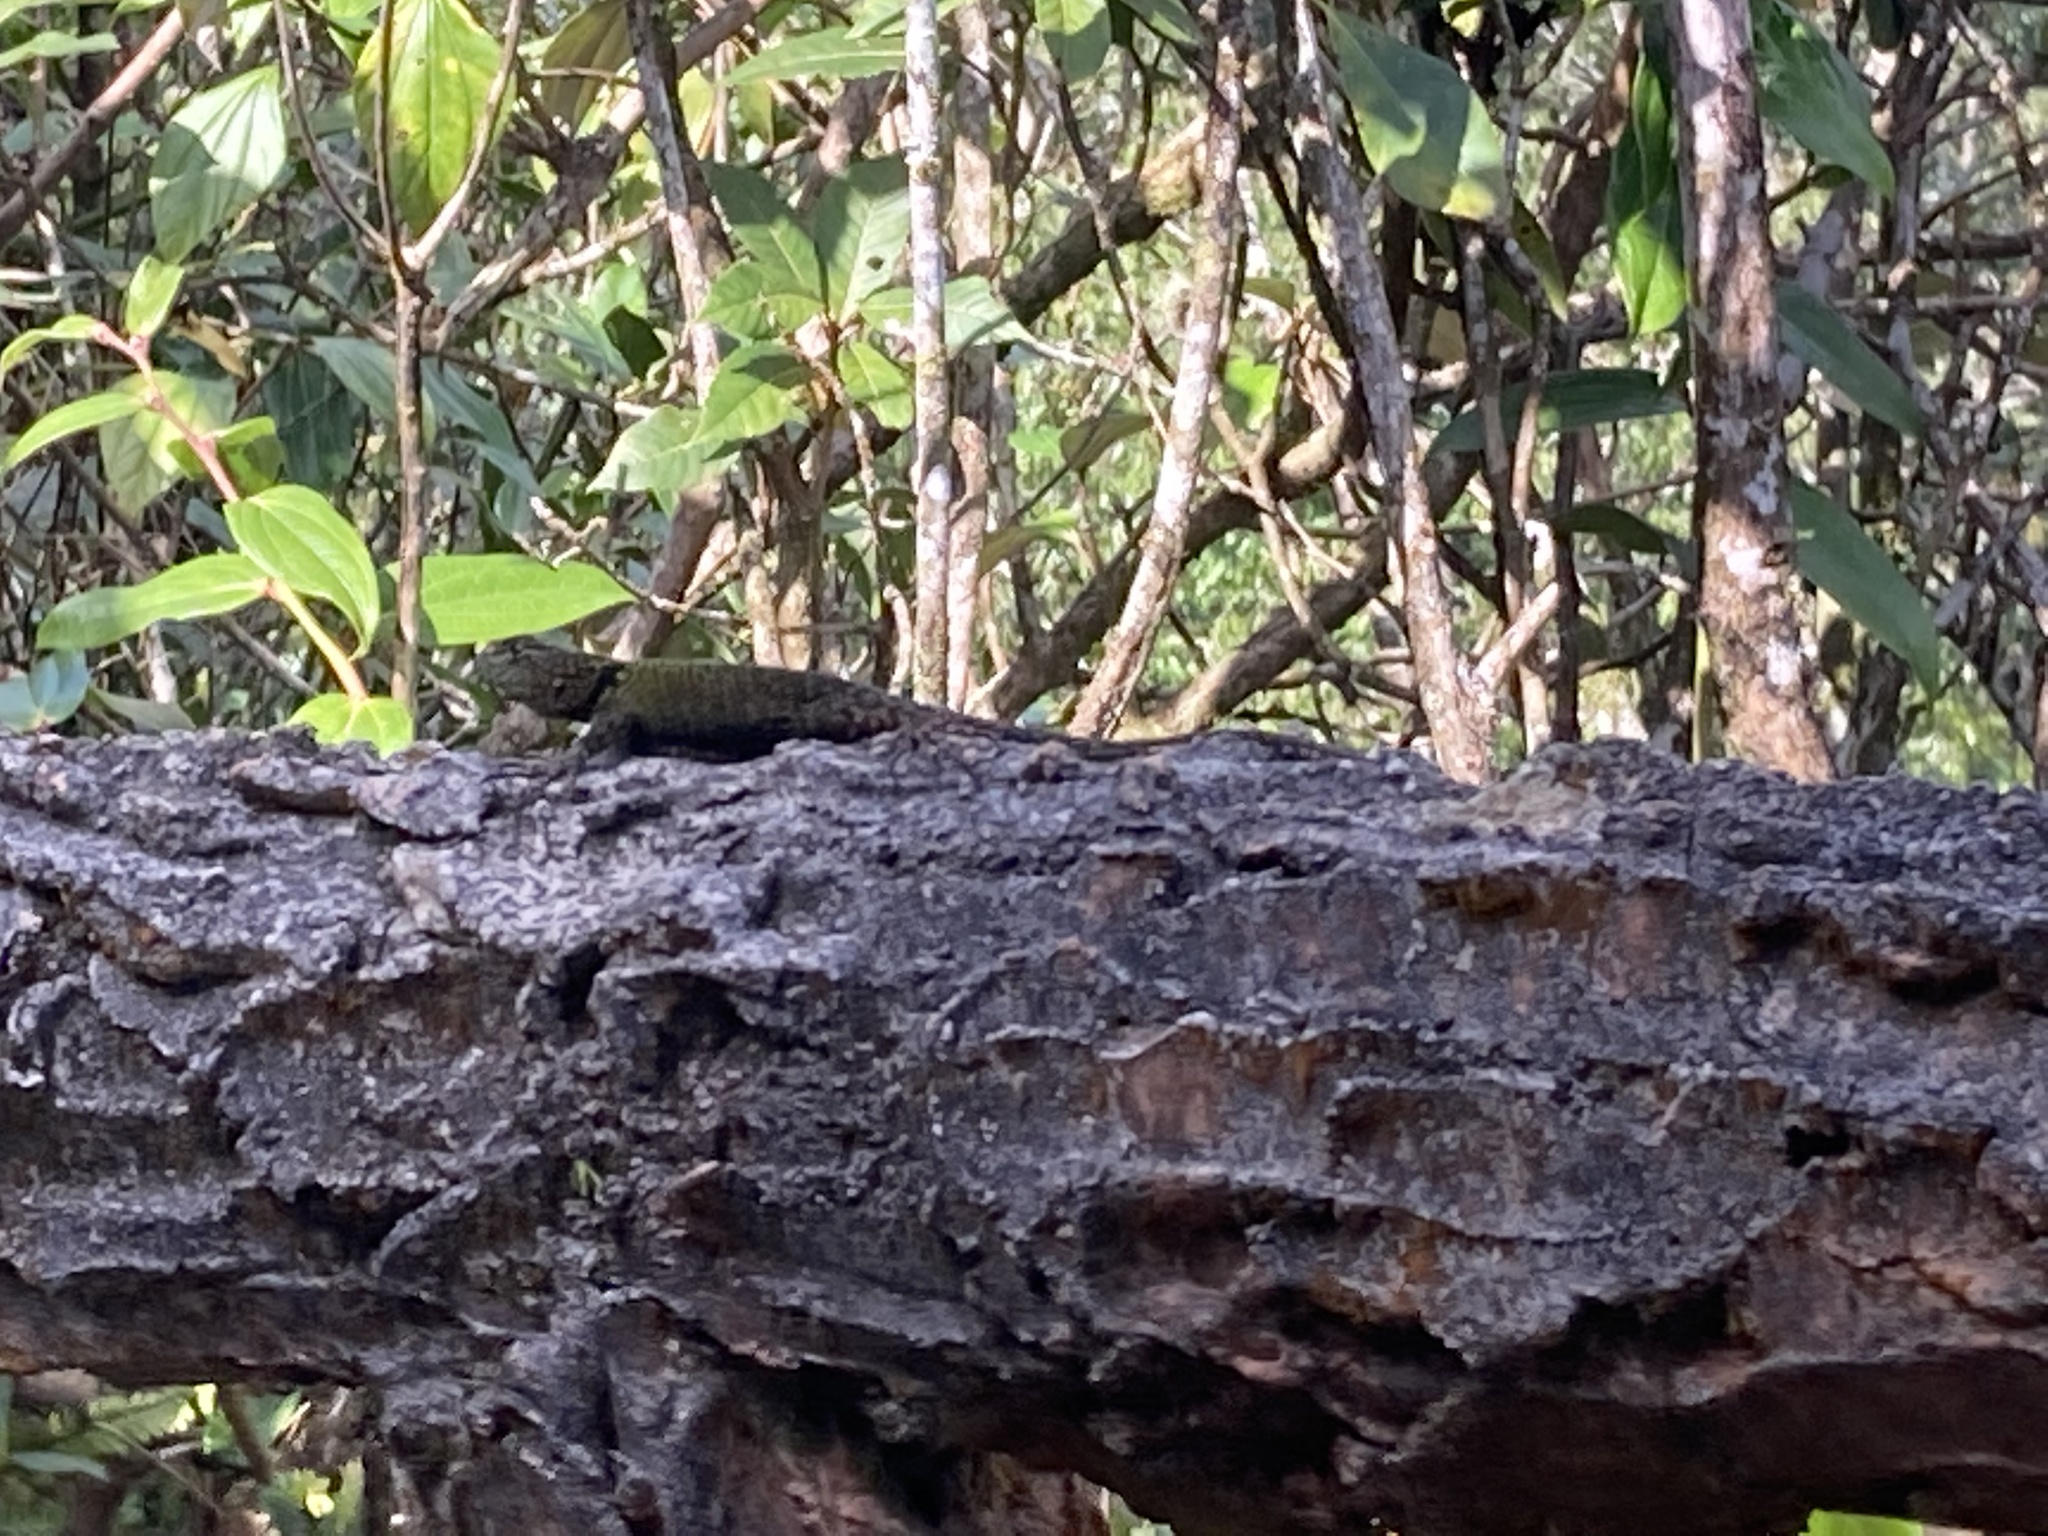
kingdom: Animalia
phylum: Chordata
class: Squamata
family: Phrynosomatidae
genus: Sceloporus
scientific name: Sceloporus taeniocnemis
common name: Guatemalan emerald spiny lizard
